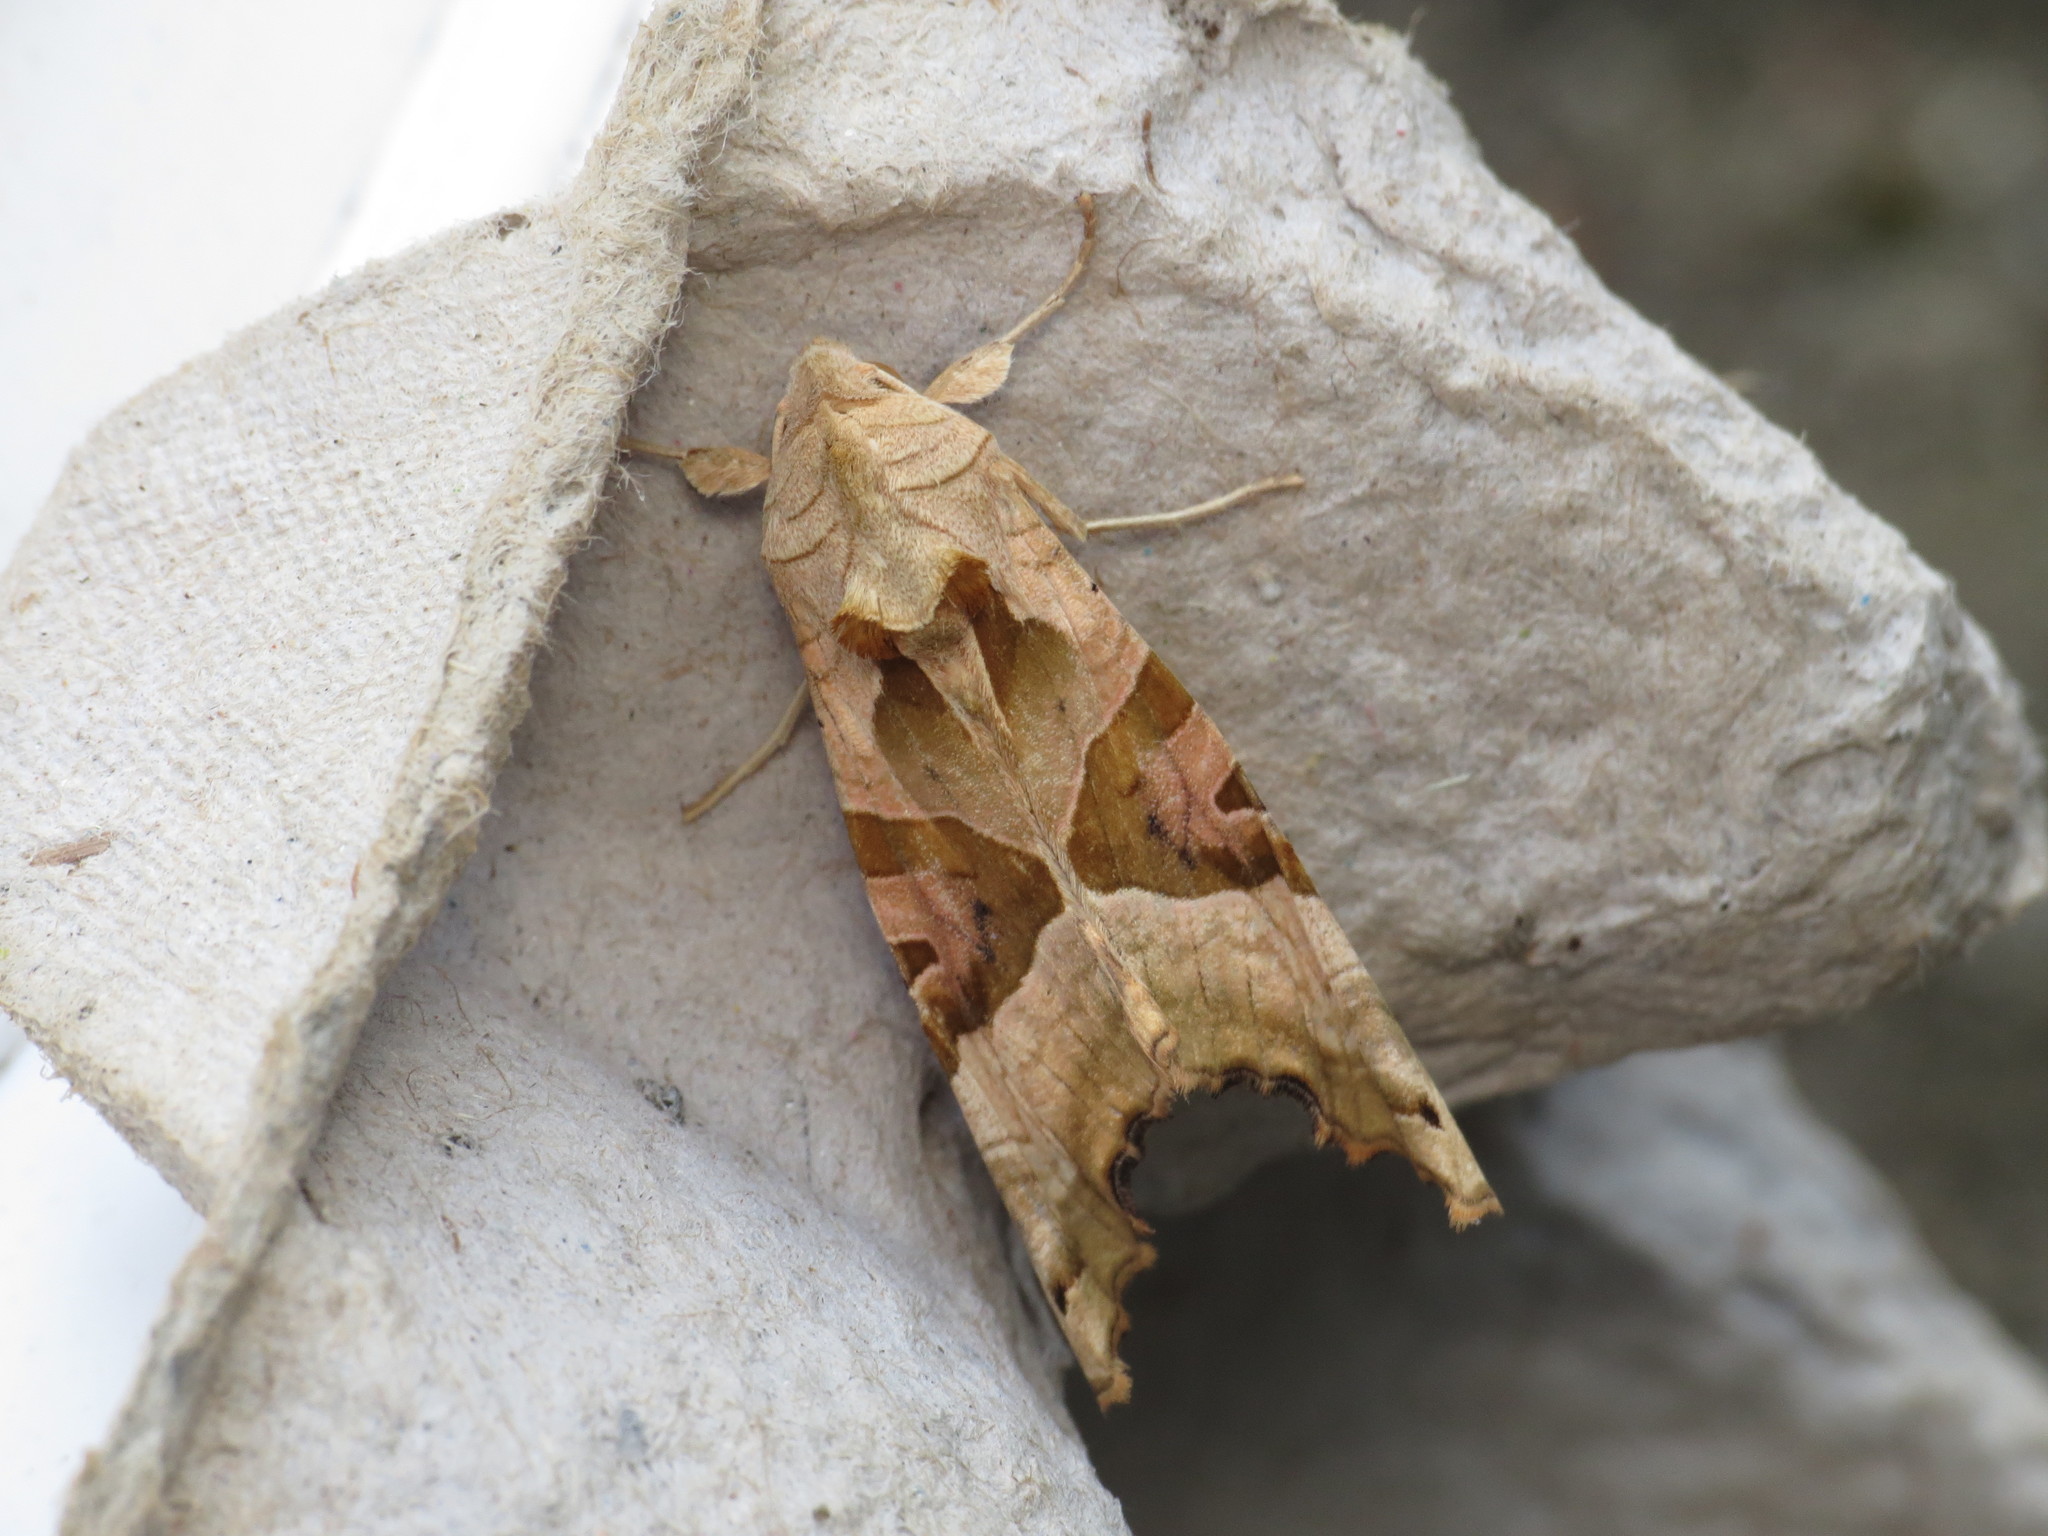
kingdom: Animalia
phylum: Arthropoda
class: Insecta
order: Lepidoptera
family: Noctuidae
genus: Phlogophora
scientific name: Phlogophora meticulosa
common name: Angle shades
